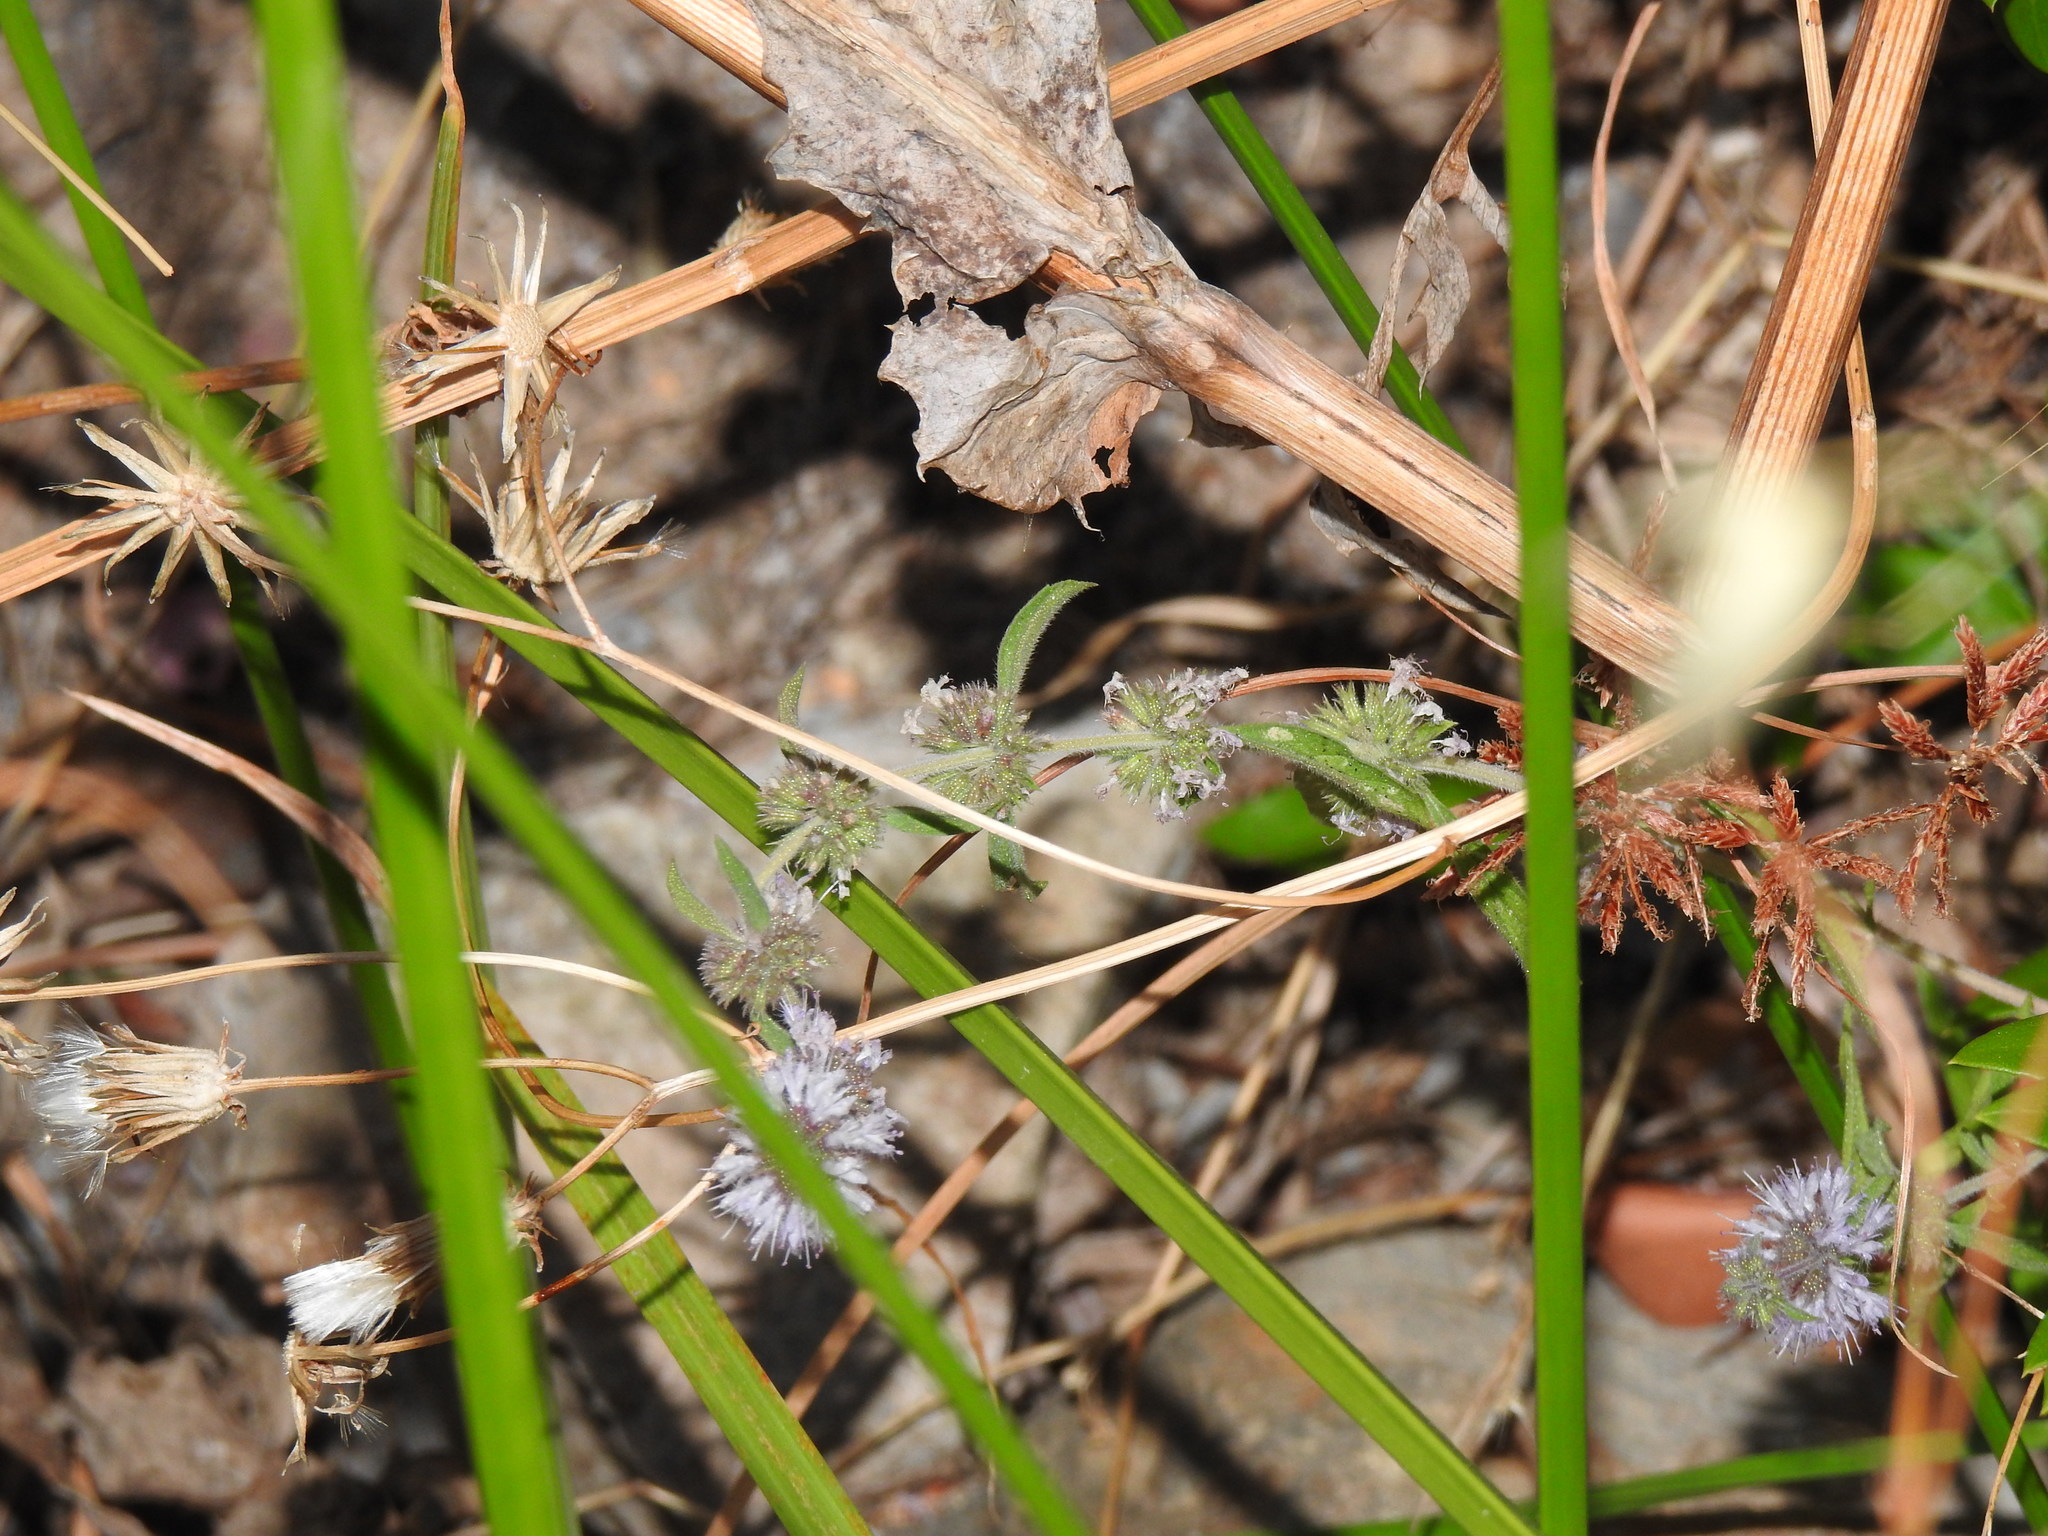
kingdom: Plantae
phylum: Tracheophyta
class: Magnoliopsida
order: Lamiales
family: Lamiaceae
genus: Mentha
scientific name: Mentha pulegium
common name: Pennyroyal
